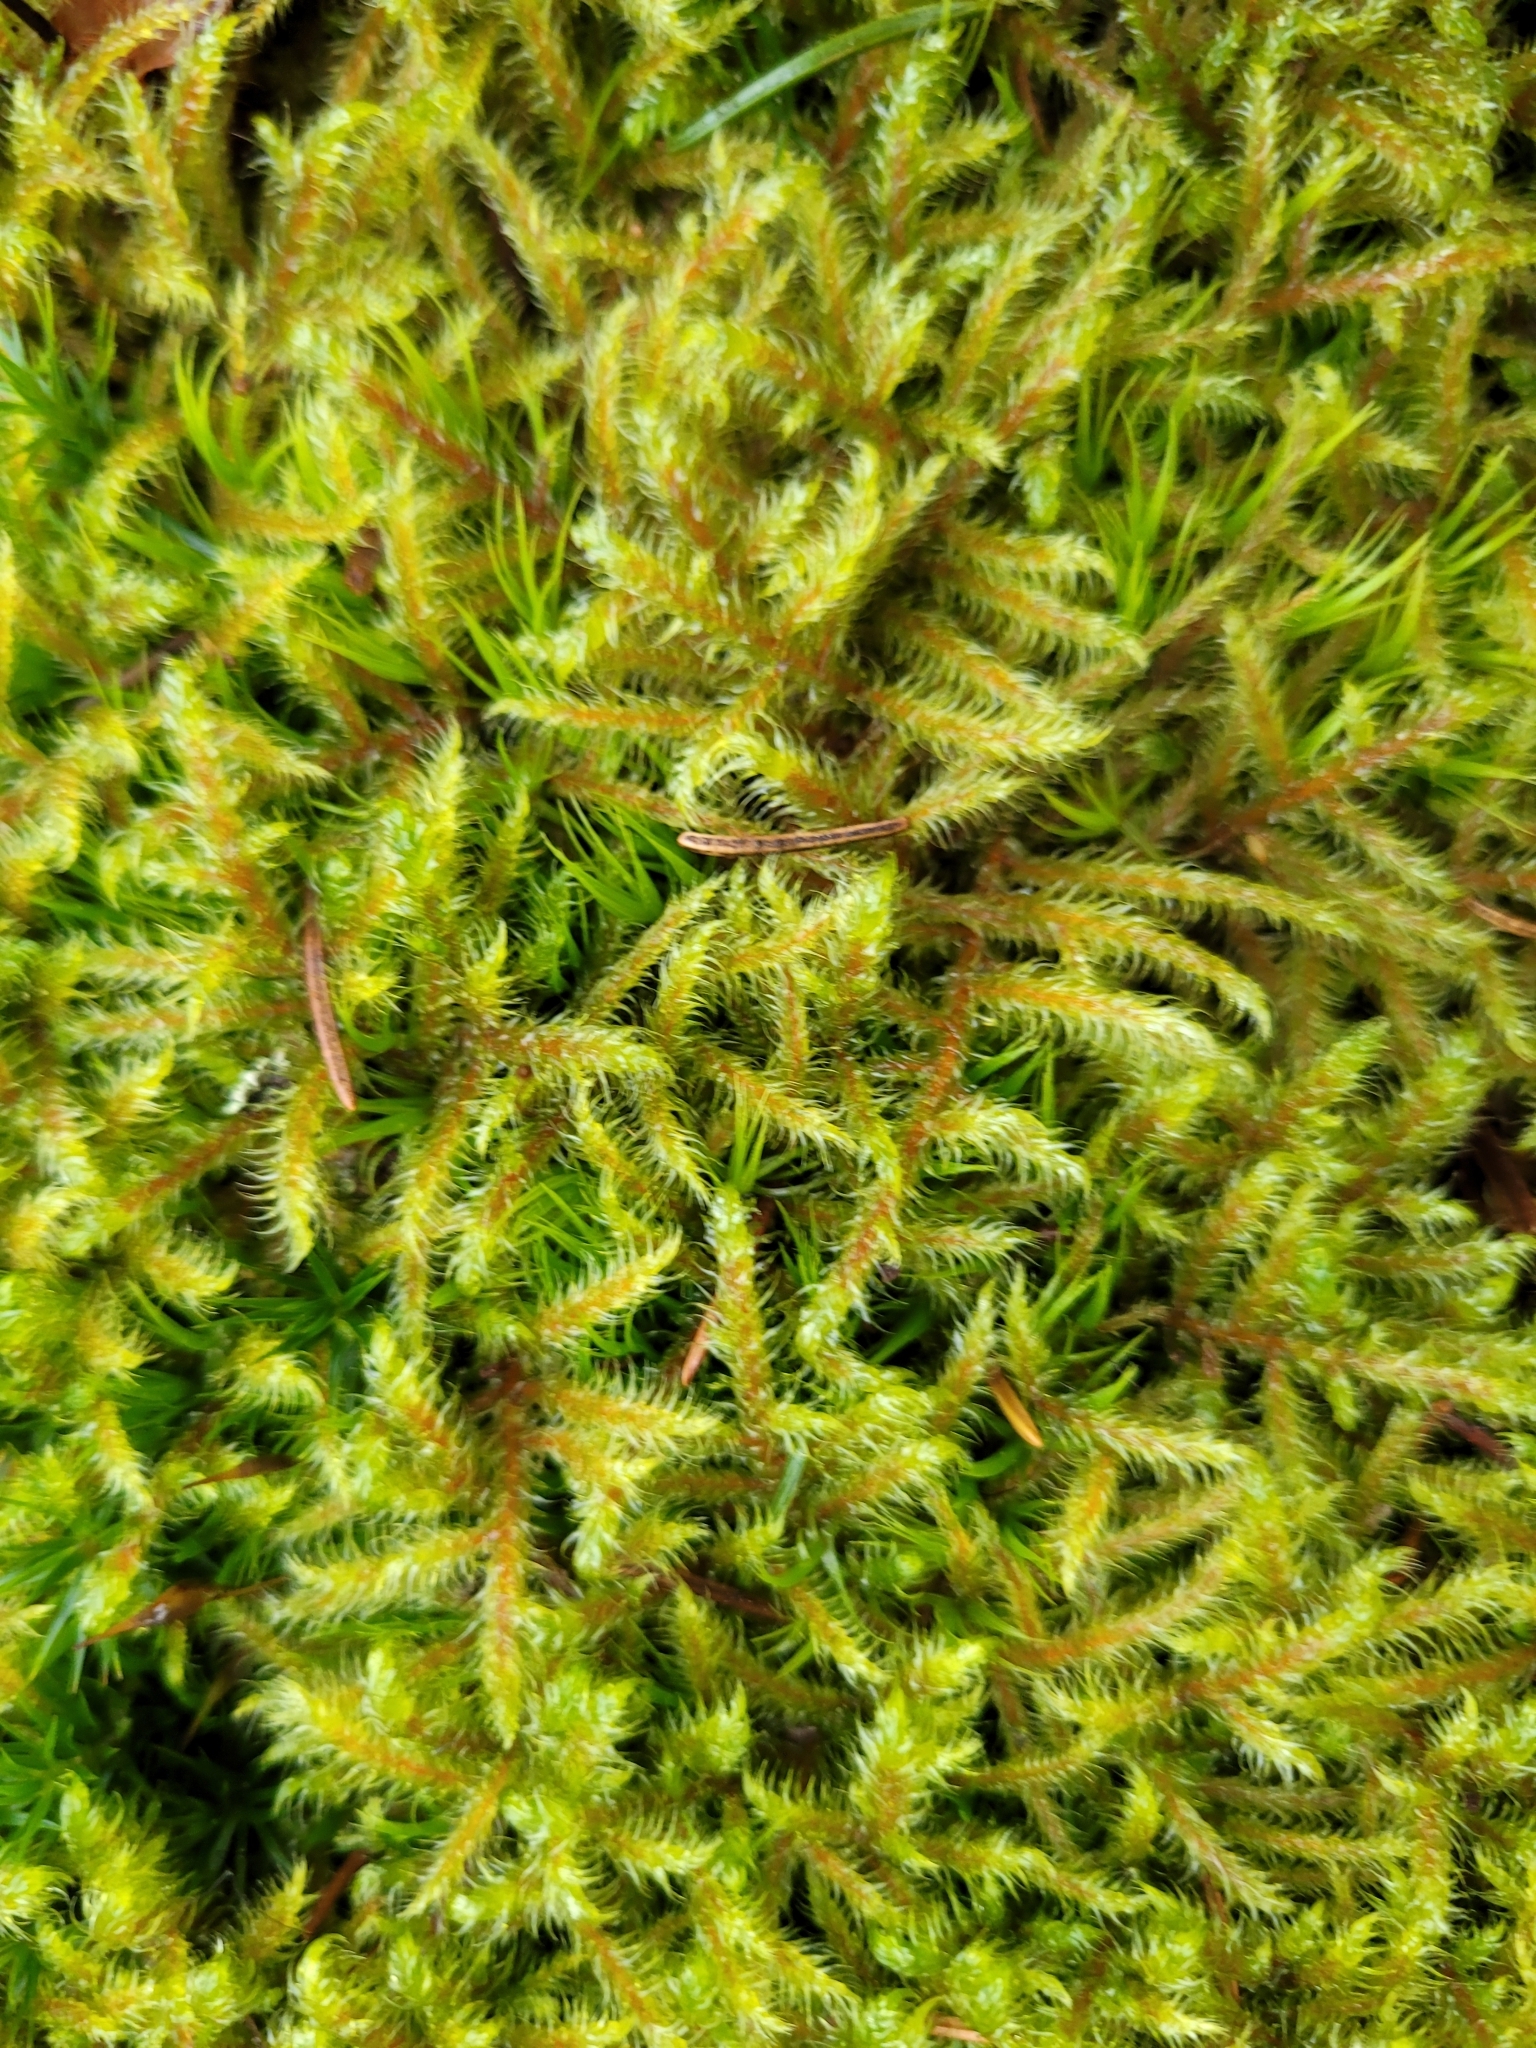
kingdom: Plantae
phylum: Bryophyta
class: Bryopsida
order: Hypnales
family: Hylocomiaceae
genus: Rhytidiadelphus
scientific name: Rhytidiadelphus loreus
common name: Lanky moss
